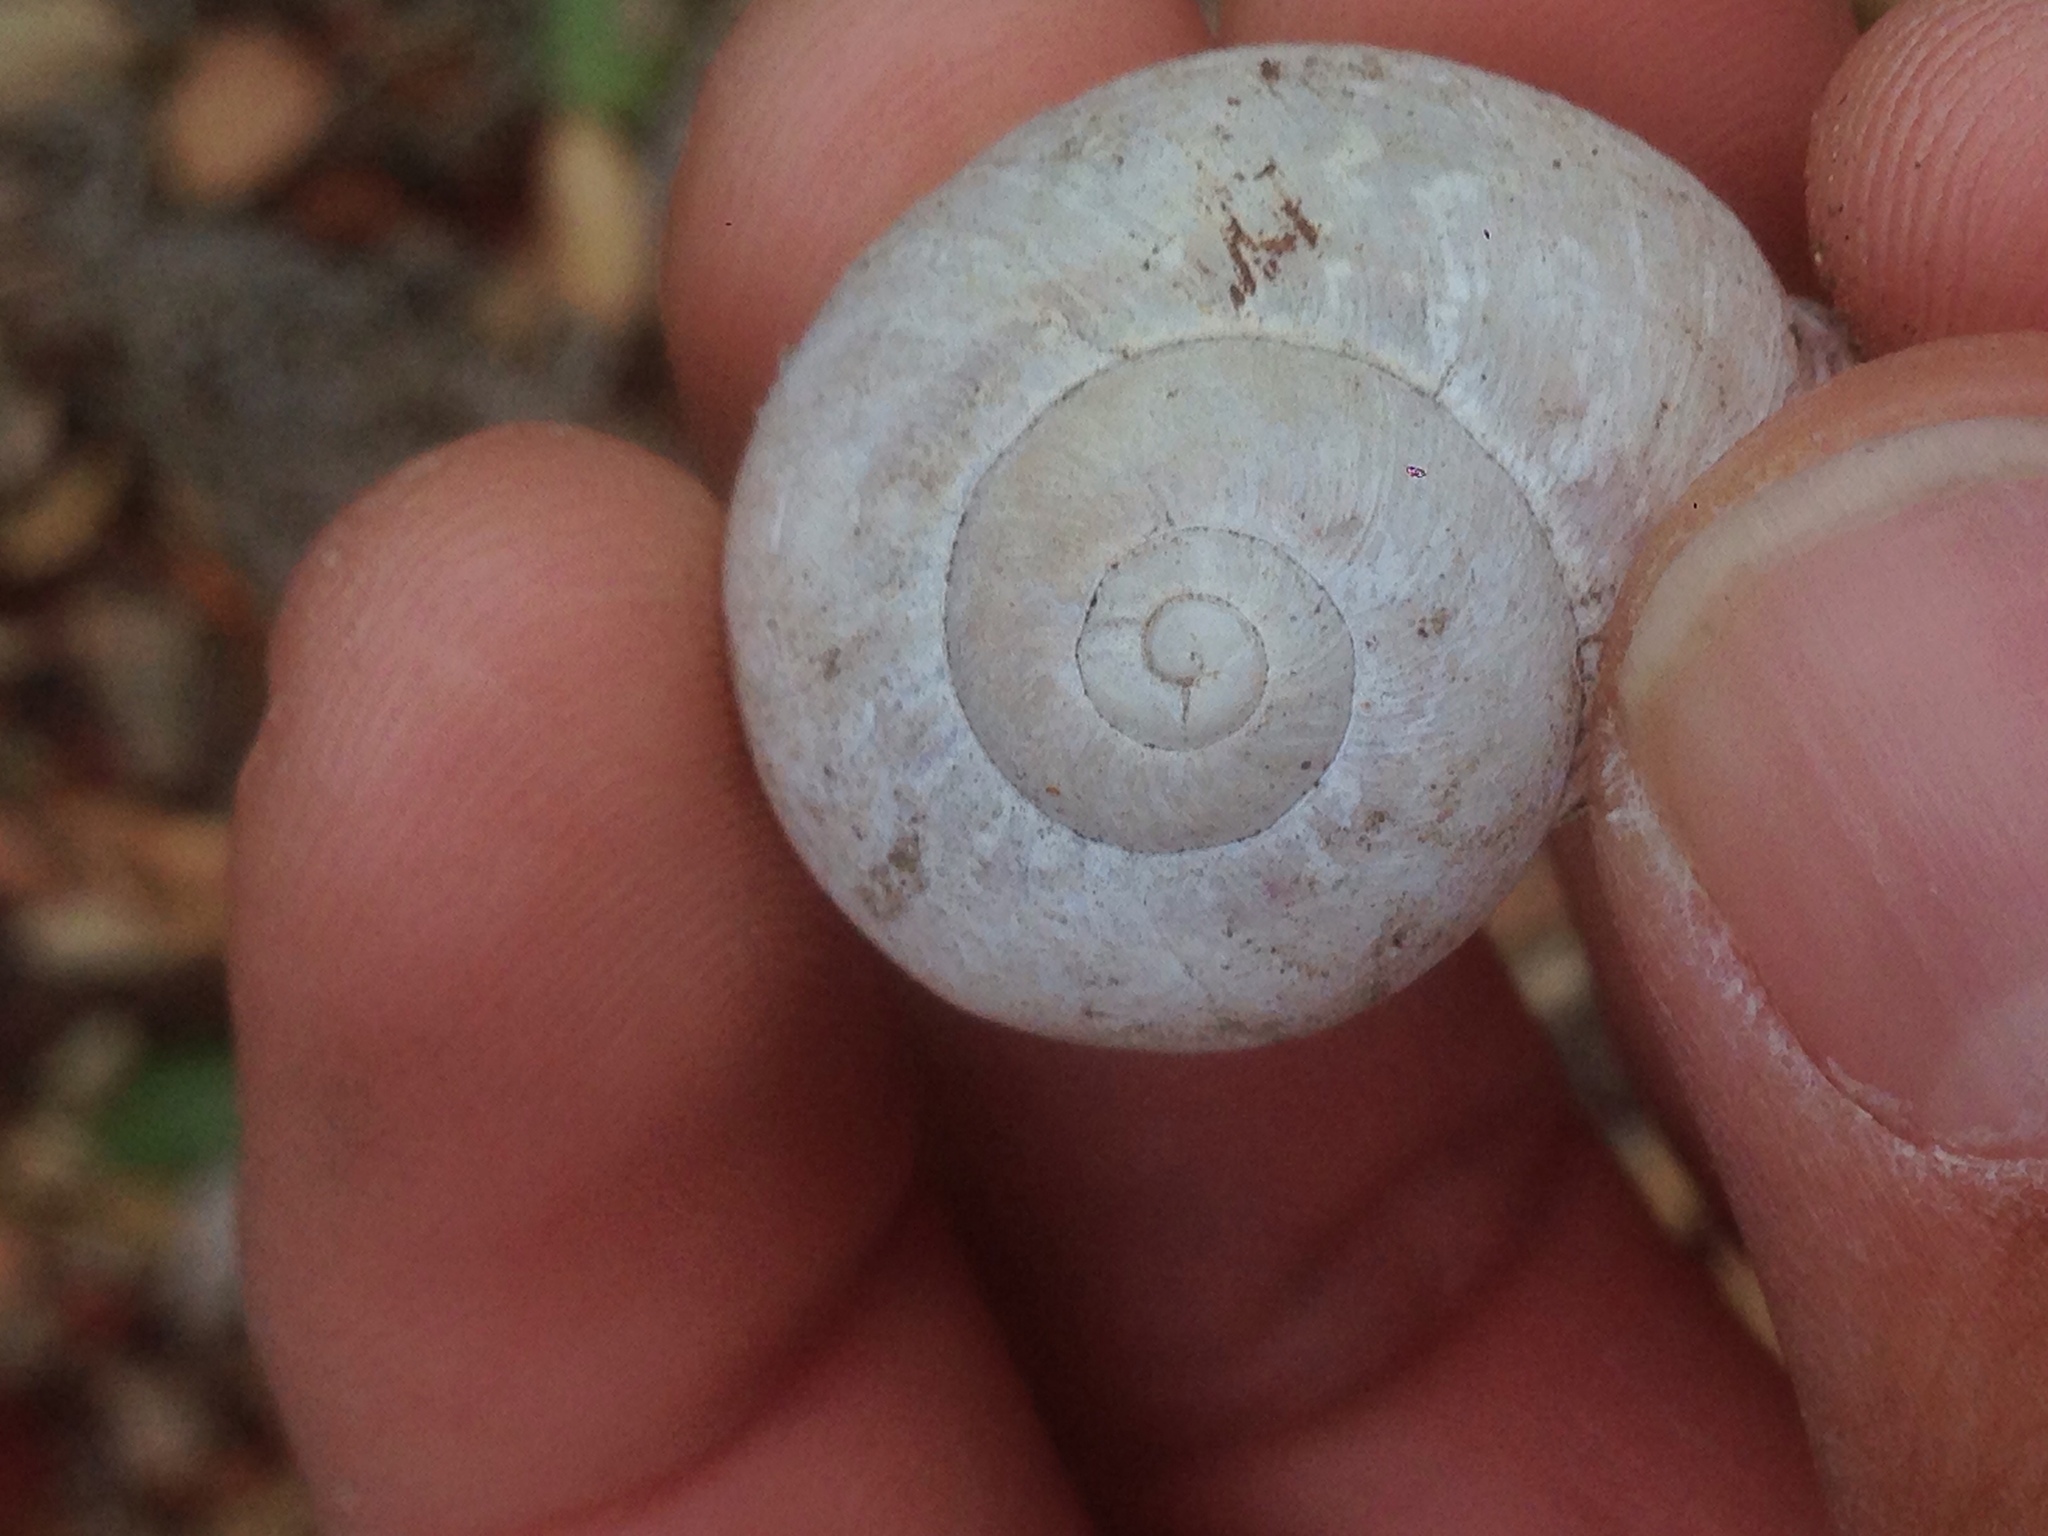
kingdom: Animalia
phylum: Mollusca
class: Gastropoda
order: Stylommatophora
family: Helicidae
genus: Cornu
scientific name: Cornu aspersum
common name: Brown garden snail
